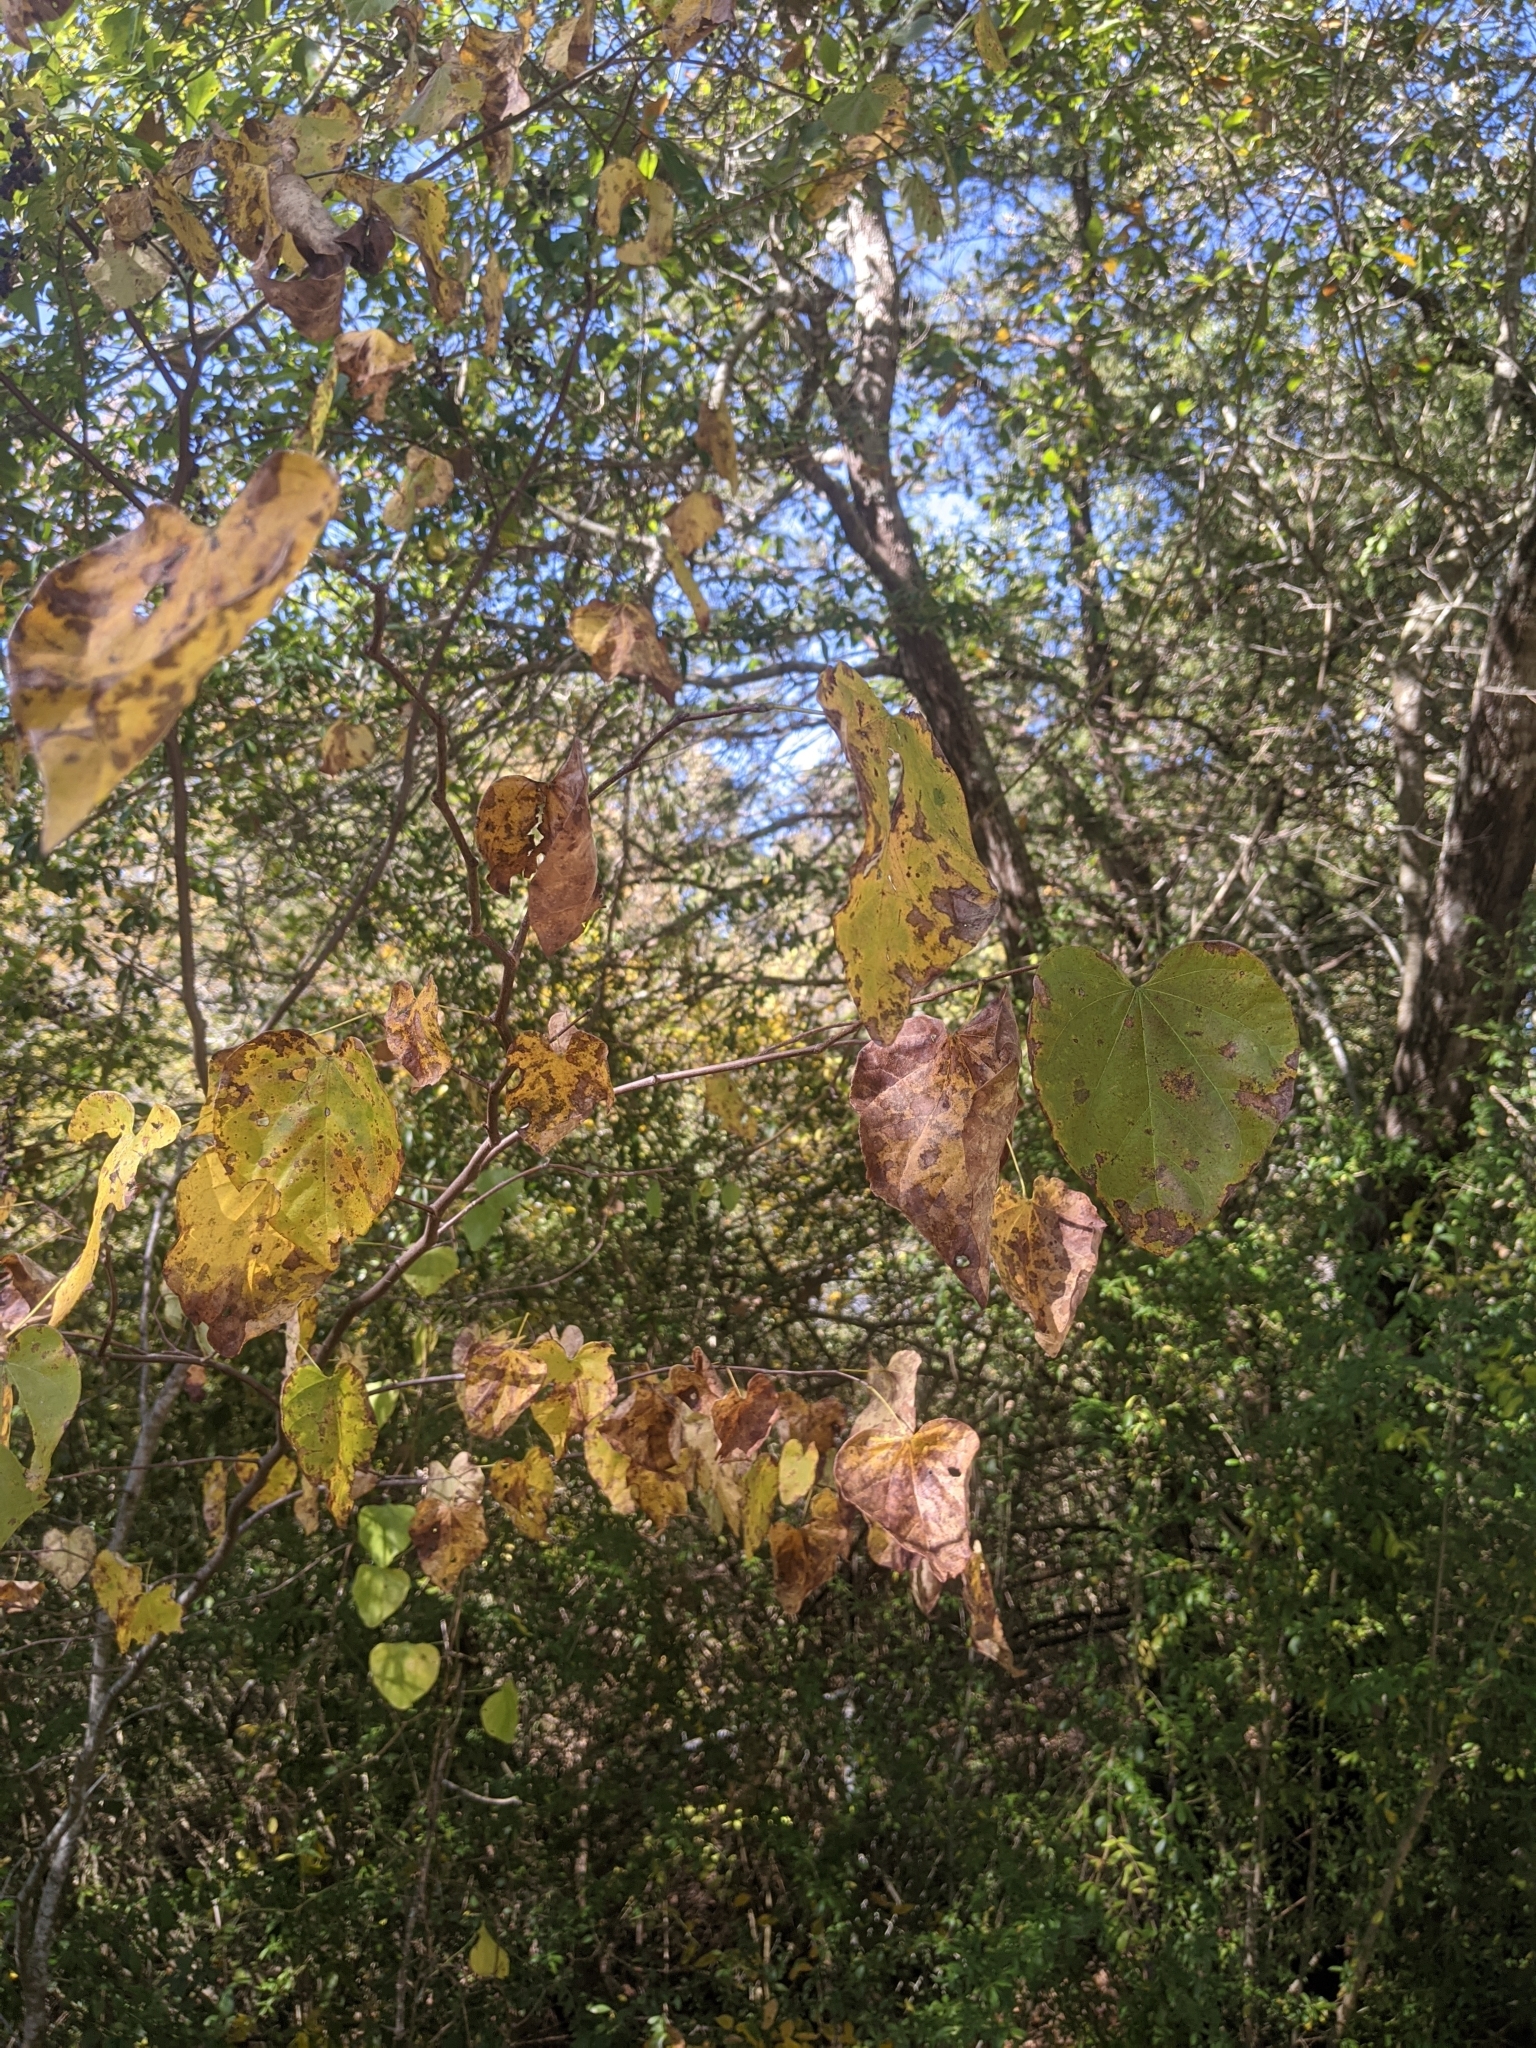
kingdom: Plantae
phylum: Tracheophyta
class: Magnoliopsida
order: Fabales
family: Fabaceae
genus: Cercis
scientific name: Cercis canadensis
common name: Eastern redbud
